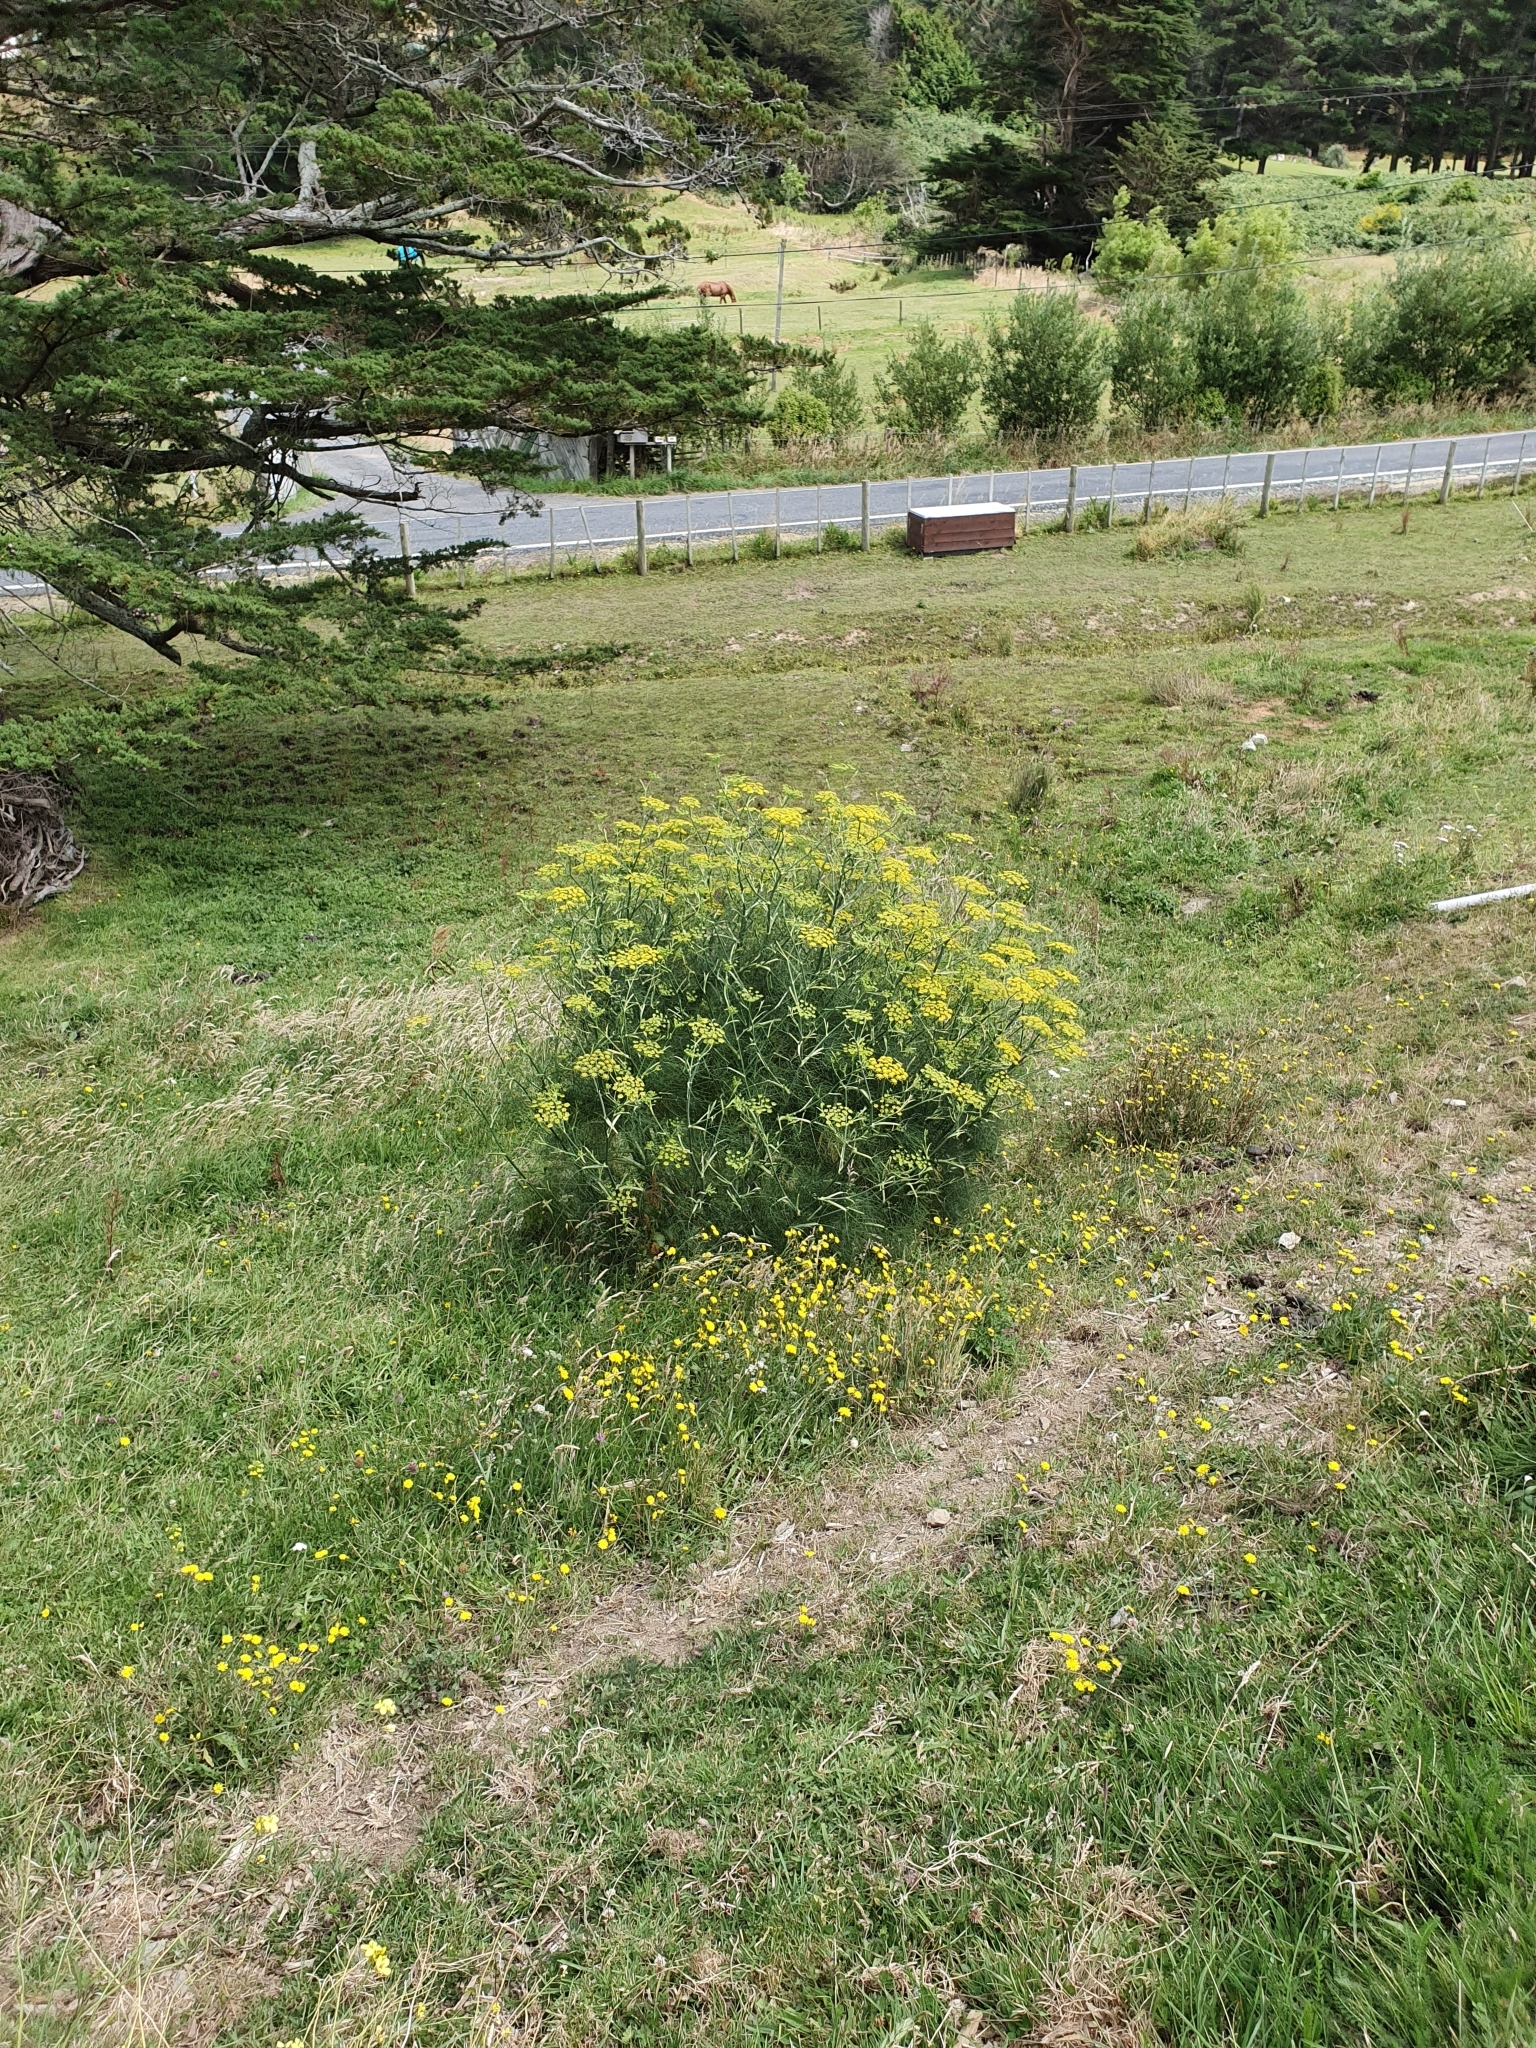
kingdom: Plantae
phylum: Tracheophyta
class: Magnoliopsida
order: Apiales
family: Apiaceae
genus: Foeniculum
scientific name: Foeniculum vulgare
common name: Fennel
